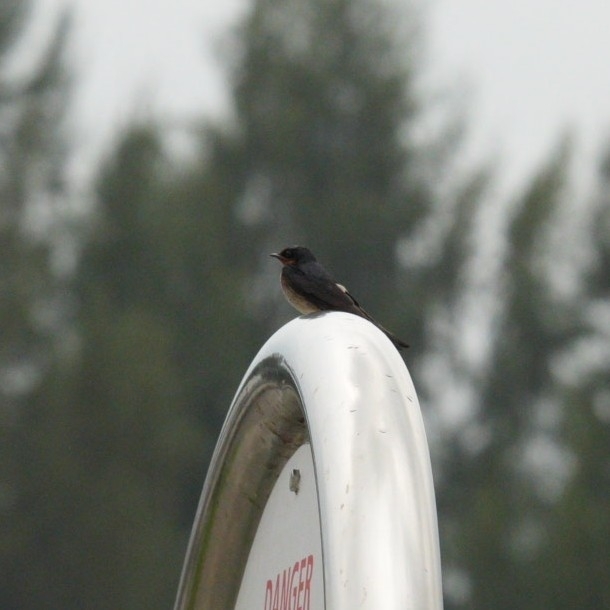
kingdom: Animalia
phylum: Chordata
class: Aves
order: Passeriformes
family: Hirundinidae
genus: Hirundo
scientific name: Hirundo tahitica
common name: Pacific swallow
